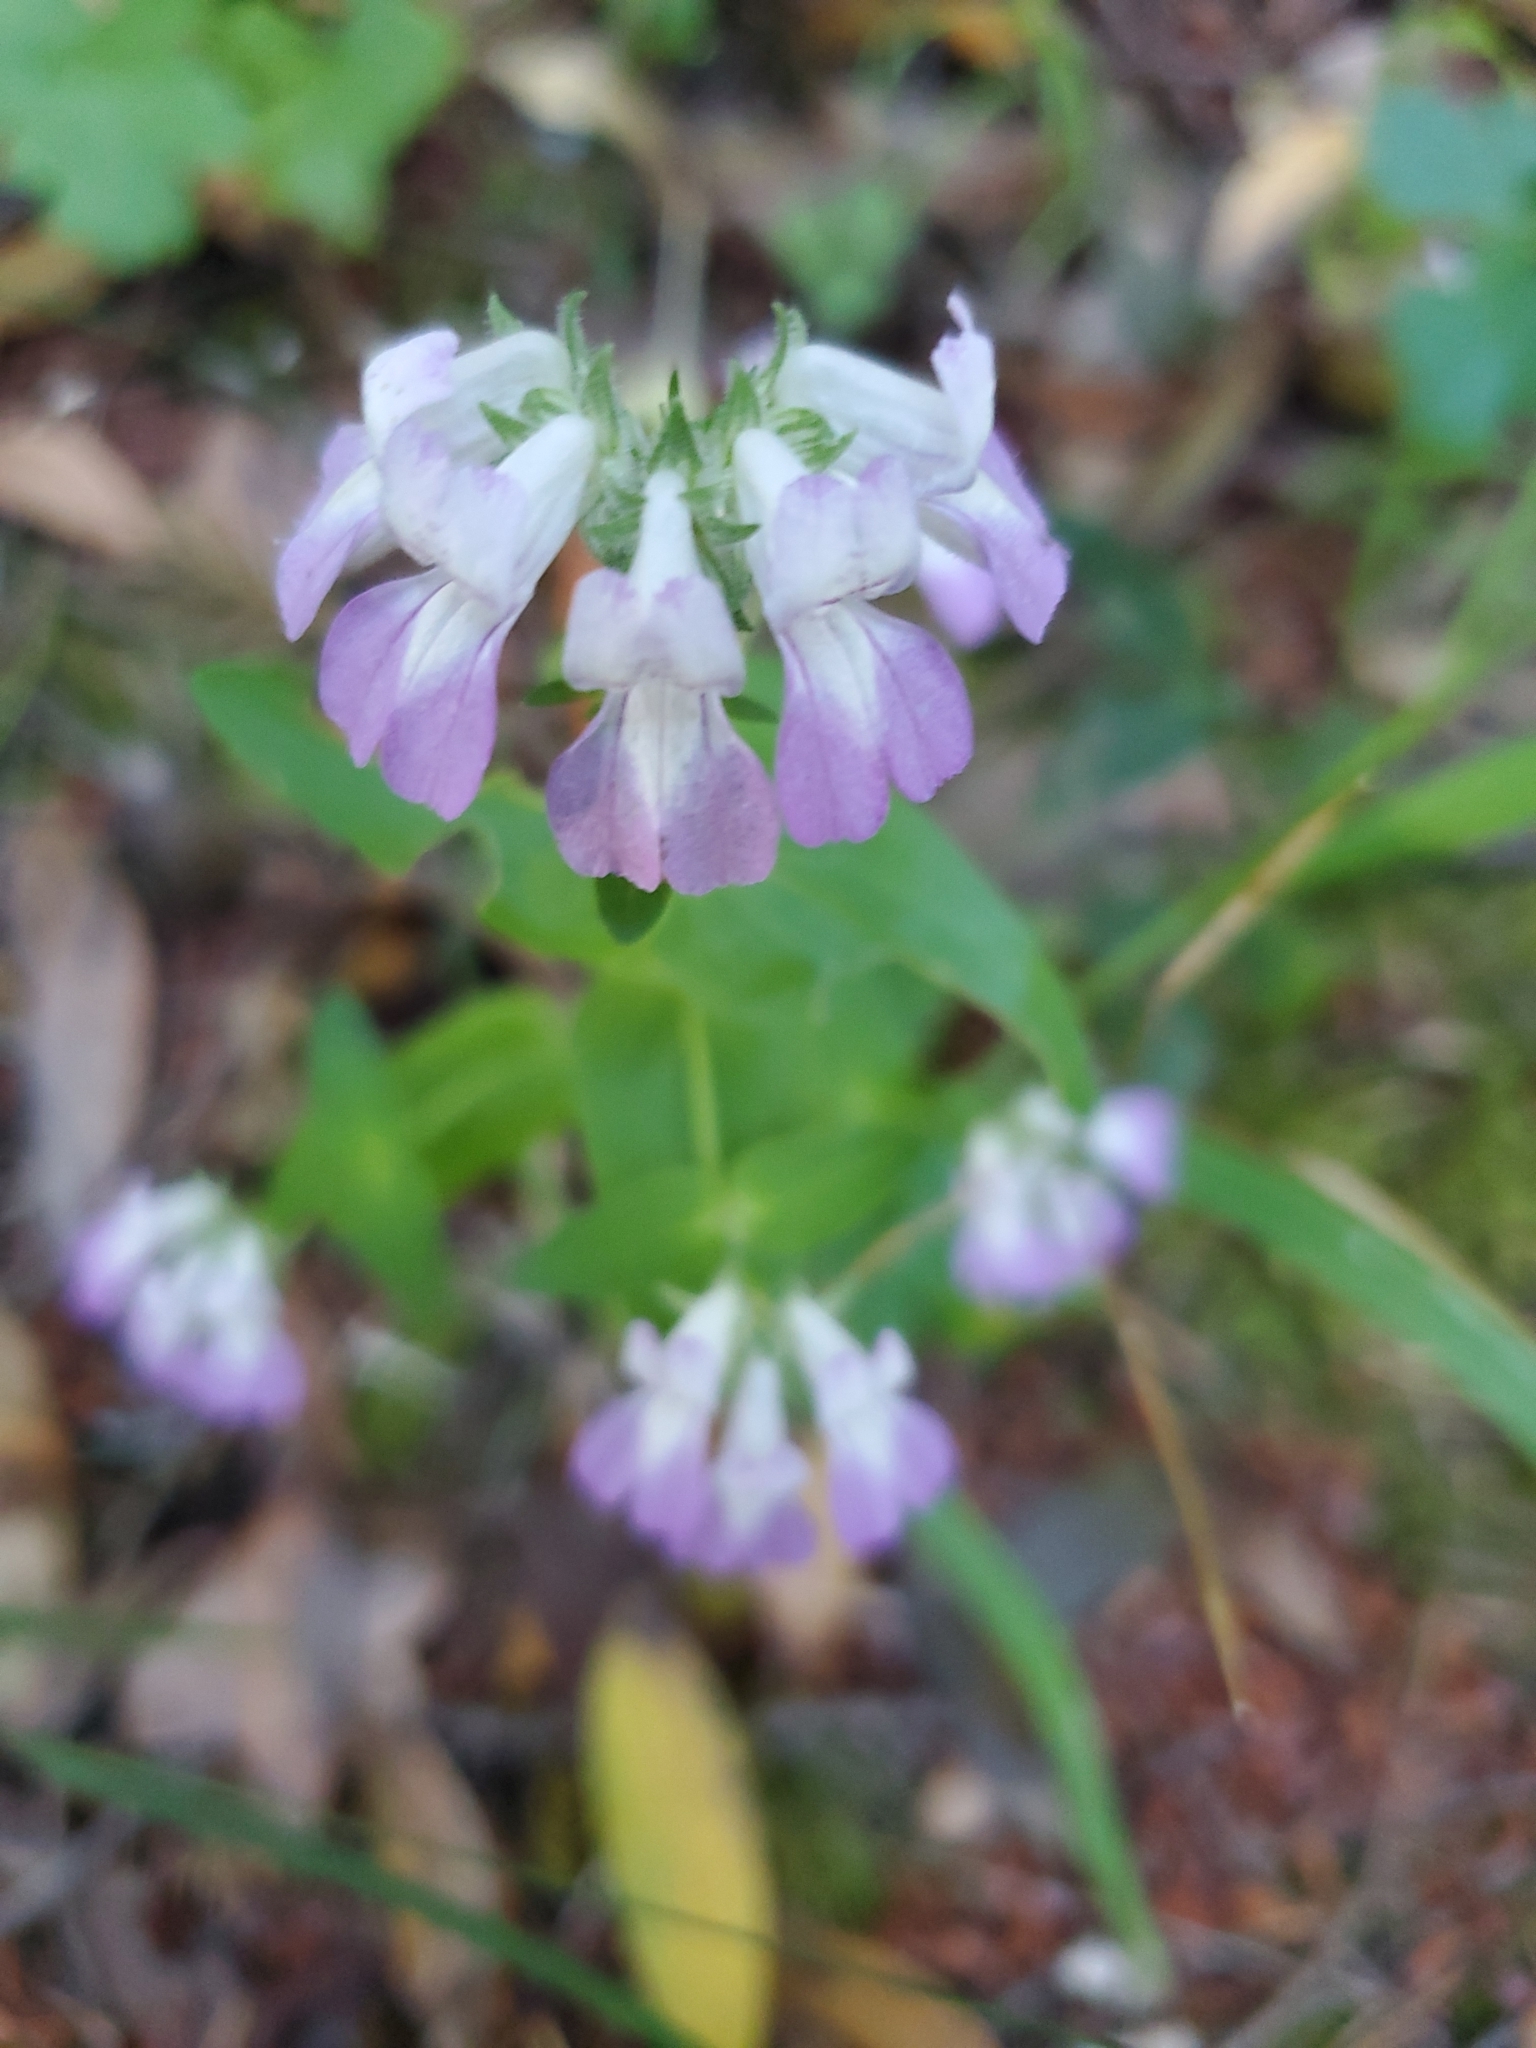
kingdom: Plantae
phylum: Tracheophyta
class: Magnoliopsida
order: Lamiales
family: Plantaginaceae
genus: Collinsia
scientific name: Collinsia heterophylla
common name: Chinese-houses
